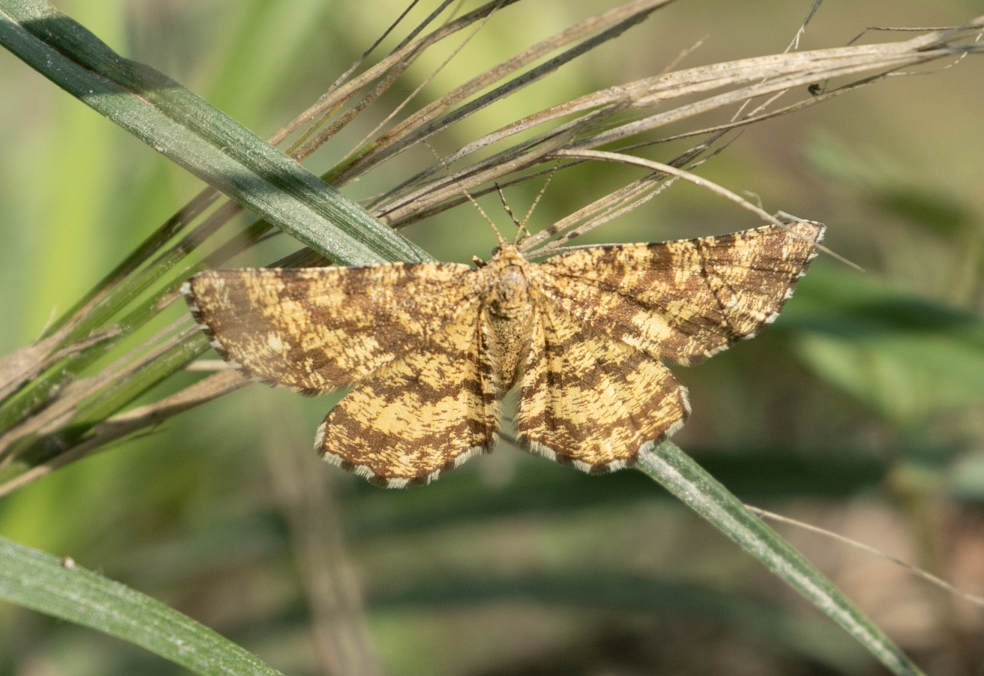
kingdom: Animalia
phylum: Arthropoda
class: Insecta
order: Lepidoptera
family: Geometridae
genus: Ematurga
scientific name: Ematurga atomaria
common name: Common heath
